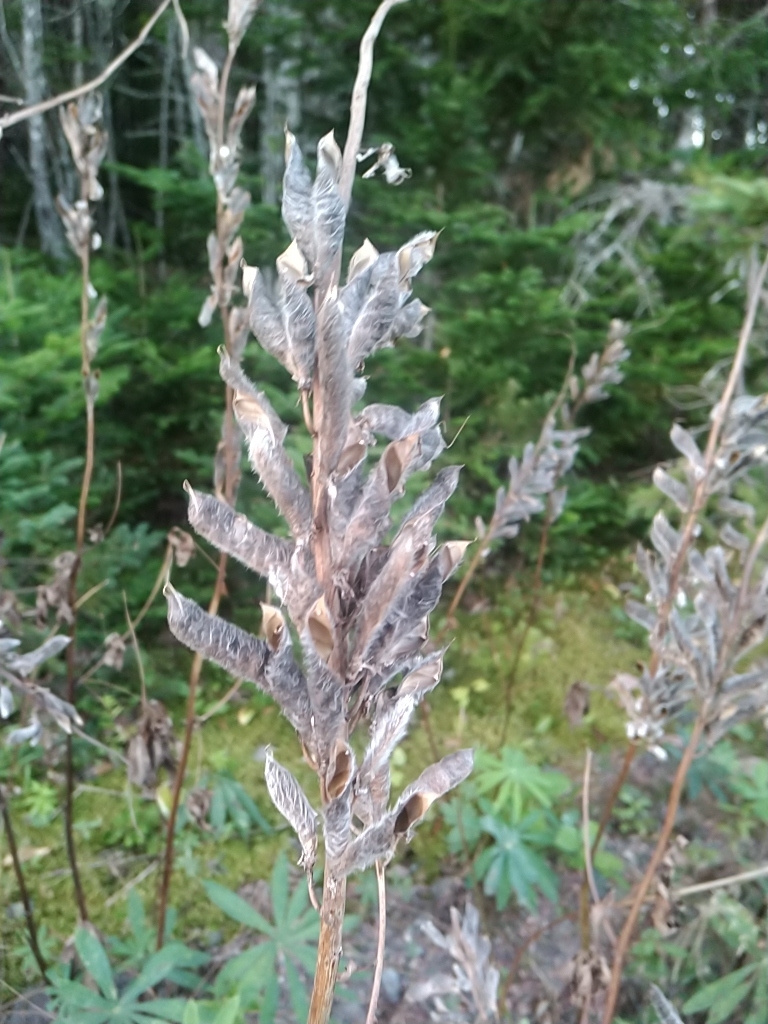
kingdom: Plantae
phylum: Tracheophyta
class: Magnoliopsida
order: Fabales
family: Fabaceae
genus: Lupinus
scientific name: Lupinus polyphyllus
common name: Garden lupin
